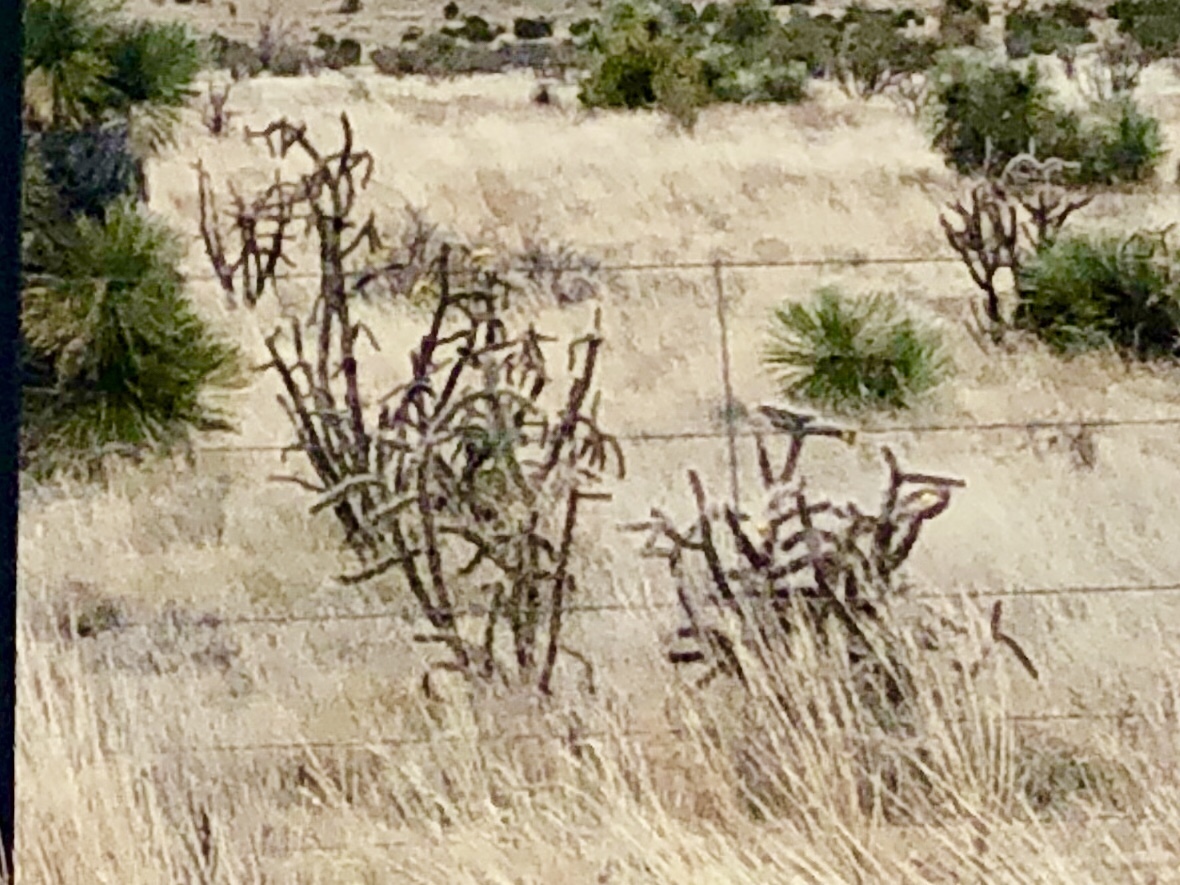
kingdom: Plantae
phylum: Tracheophyta
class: Magnoliopsida
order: Caryophyllales
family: Cactaceae
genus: Cylindropuntia
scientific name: Cylindropuntia imbricata
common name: Candelabrum cactus
